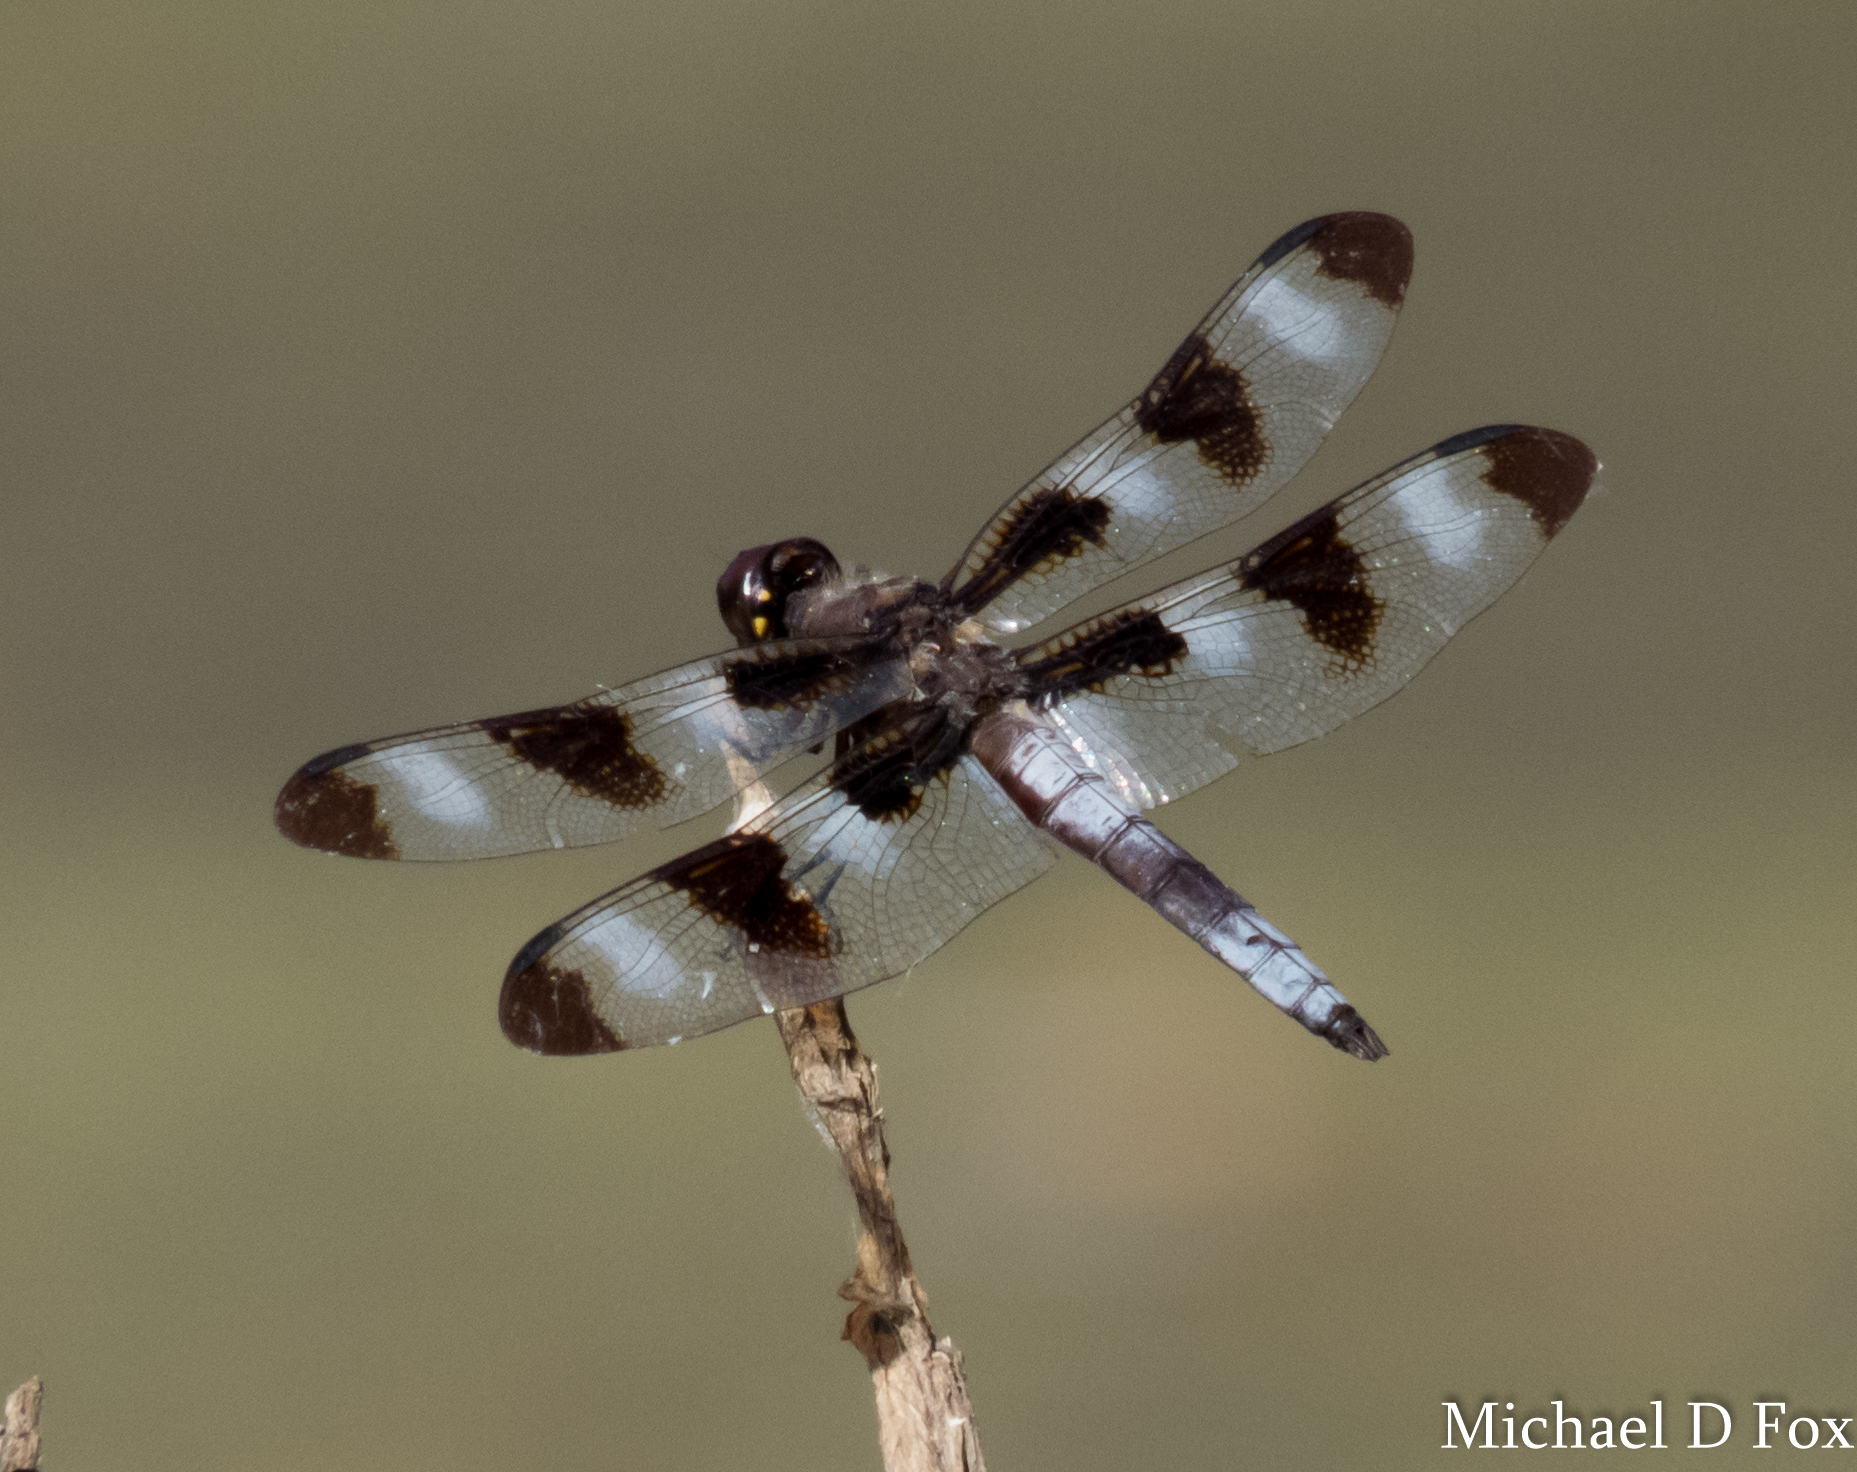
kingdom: Animalia
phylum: Arthropoda
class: Insecta
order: Odonata
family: Libellulidae
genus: Libellula
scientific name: Libellula pulchella
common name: Twelve-spotted skimmer
